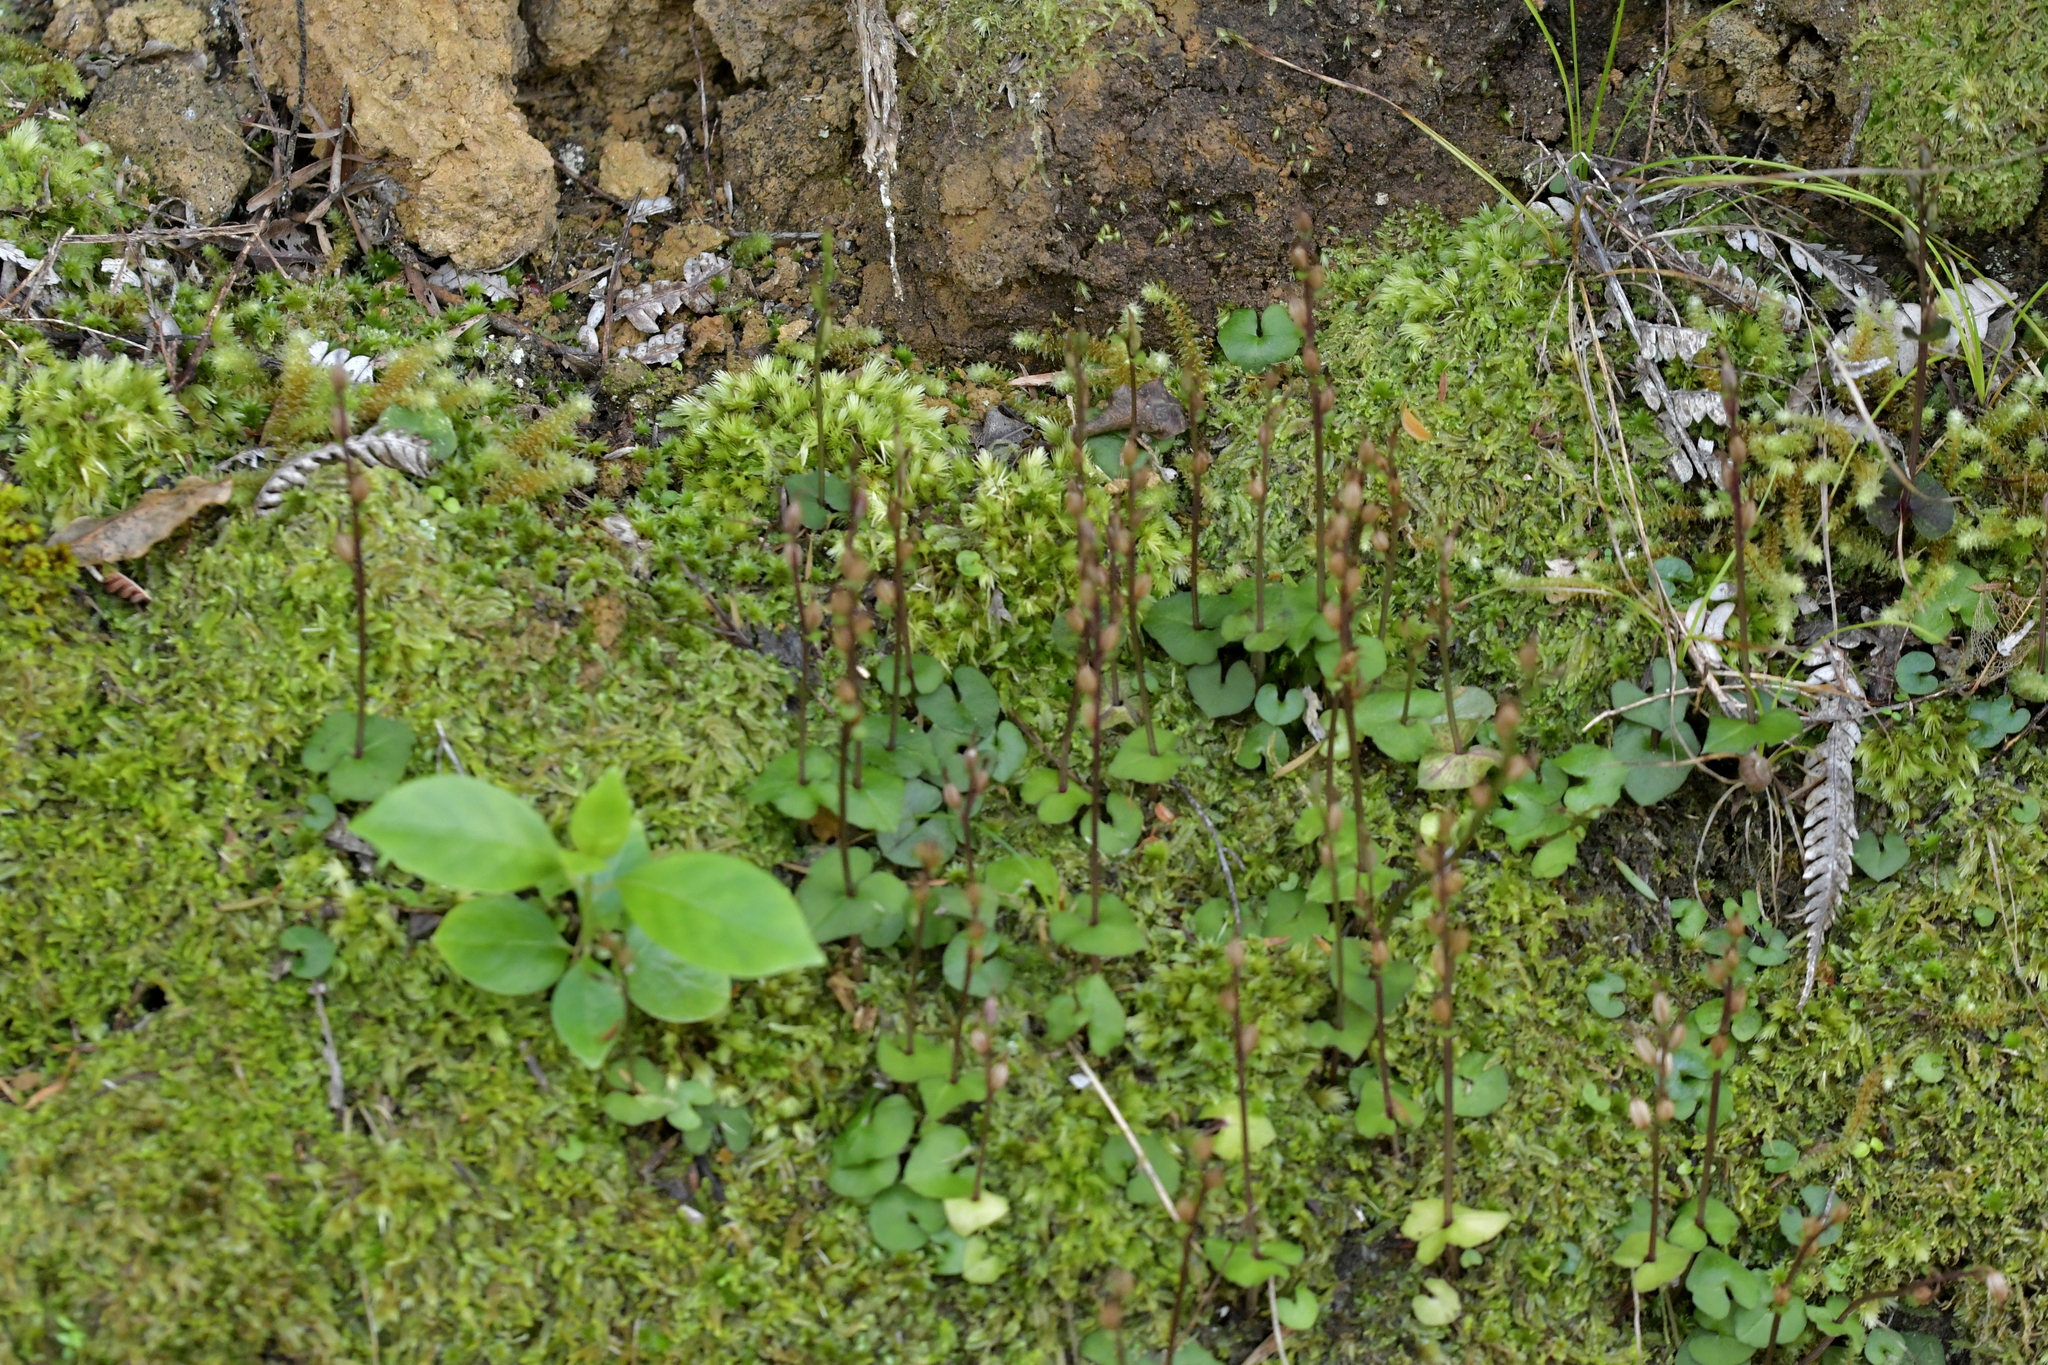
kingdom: Plantae
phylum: Tracheophyta
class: Liliopsida
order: Asparagales
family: Orchidaceae
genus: Acianthus
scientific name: Acianthus sinclairii
